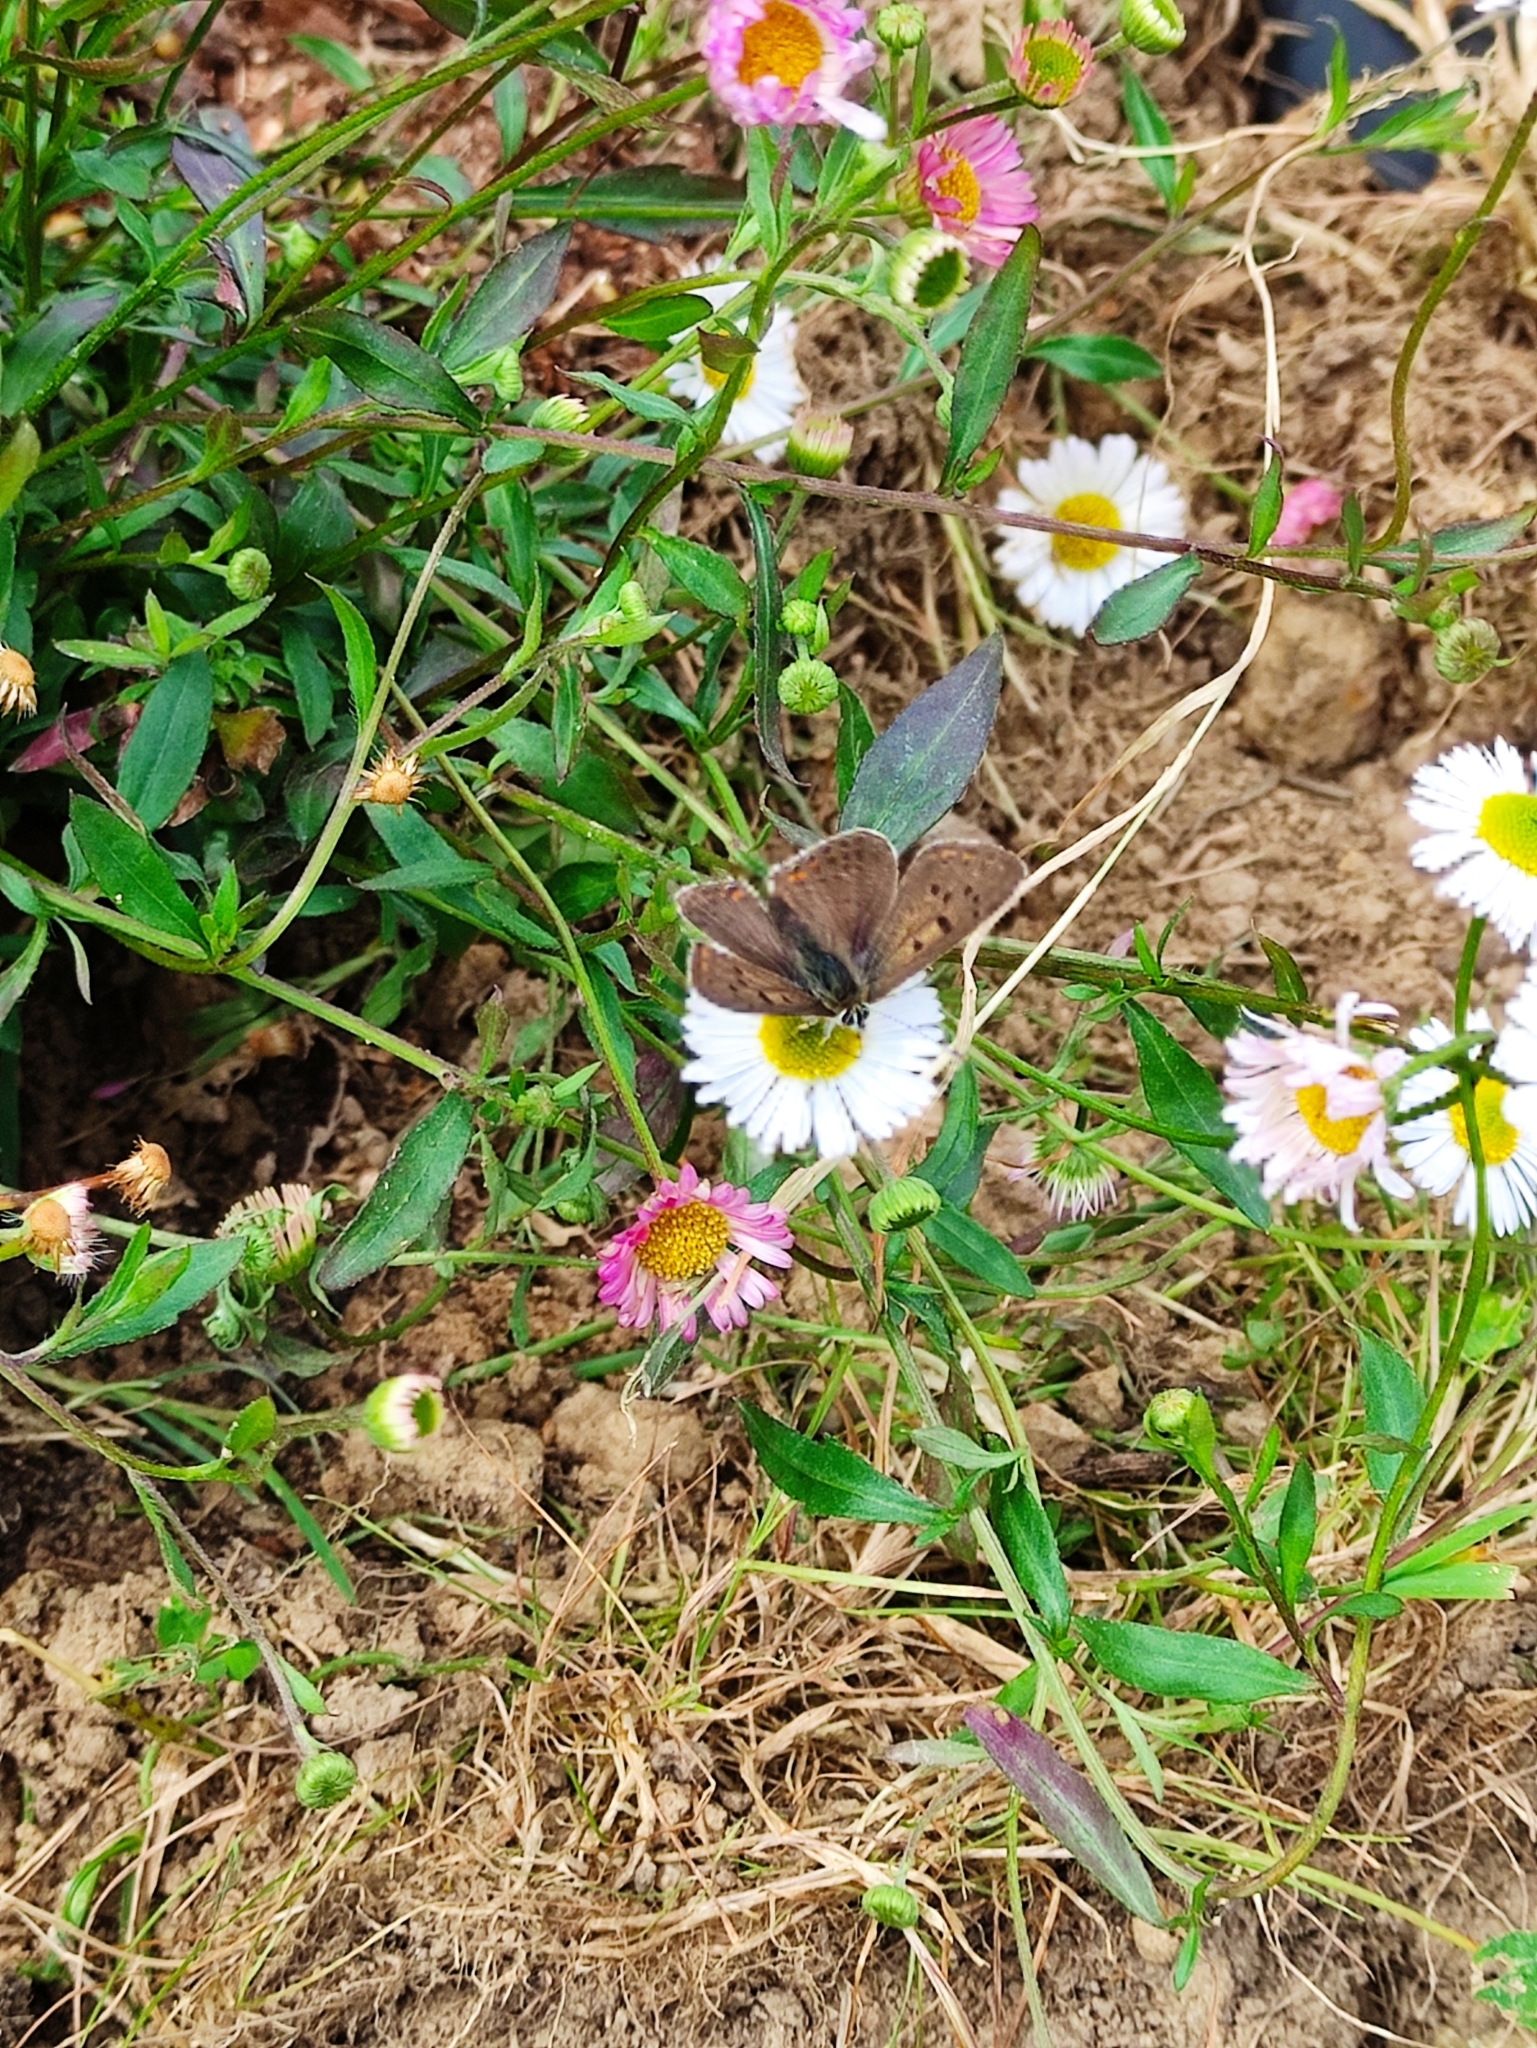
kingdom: Animalia
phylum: Arthropoda
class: Insecta
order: Lepidoptera
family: Lycaenidae
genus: Loweia
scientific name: Loweia tityrus
